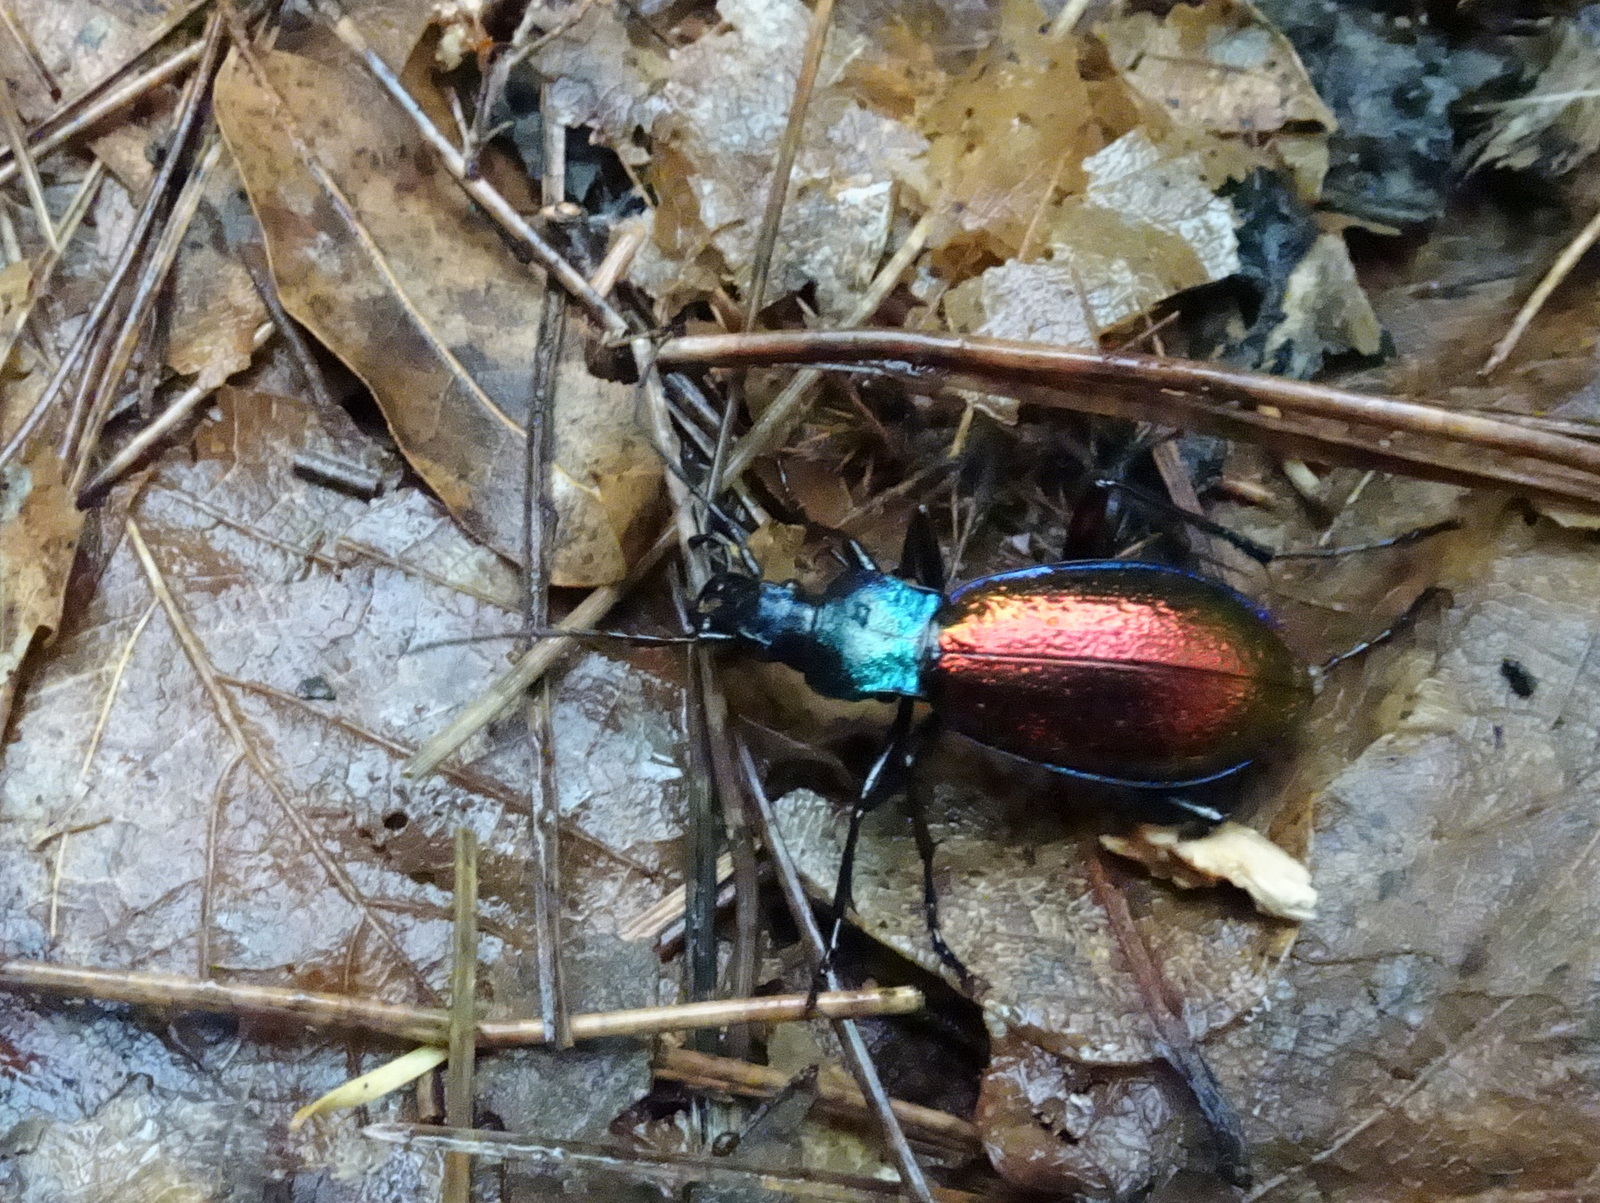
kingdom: Animalia
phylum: Arthropoda
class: Insecta
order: Coleoptera
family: Carabidae
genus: Carabus
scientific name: Carabus hispanus
